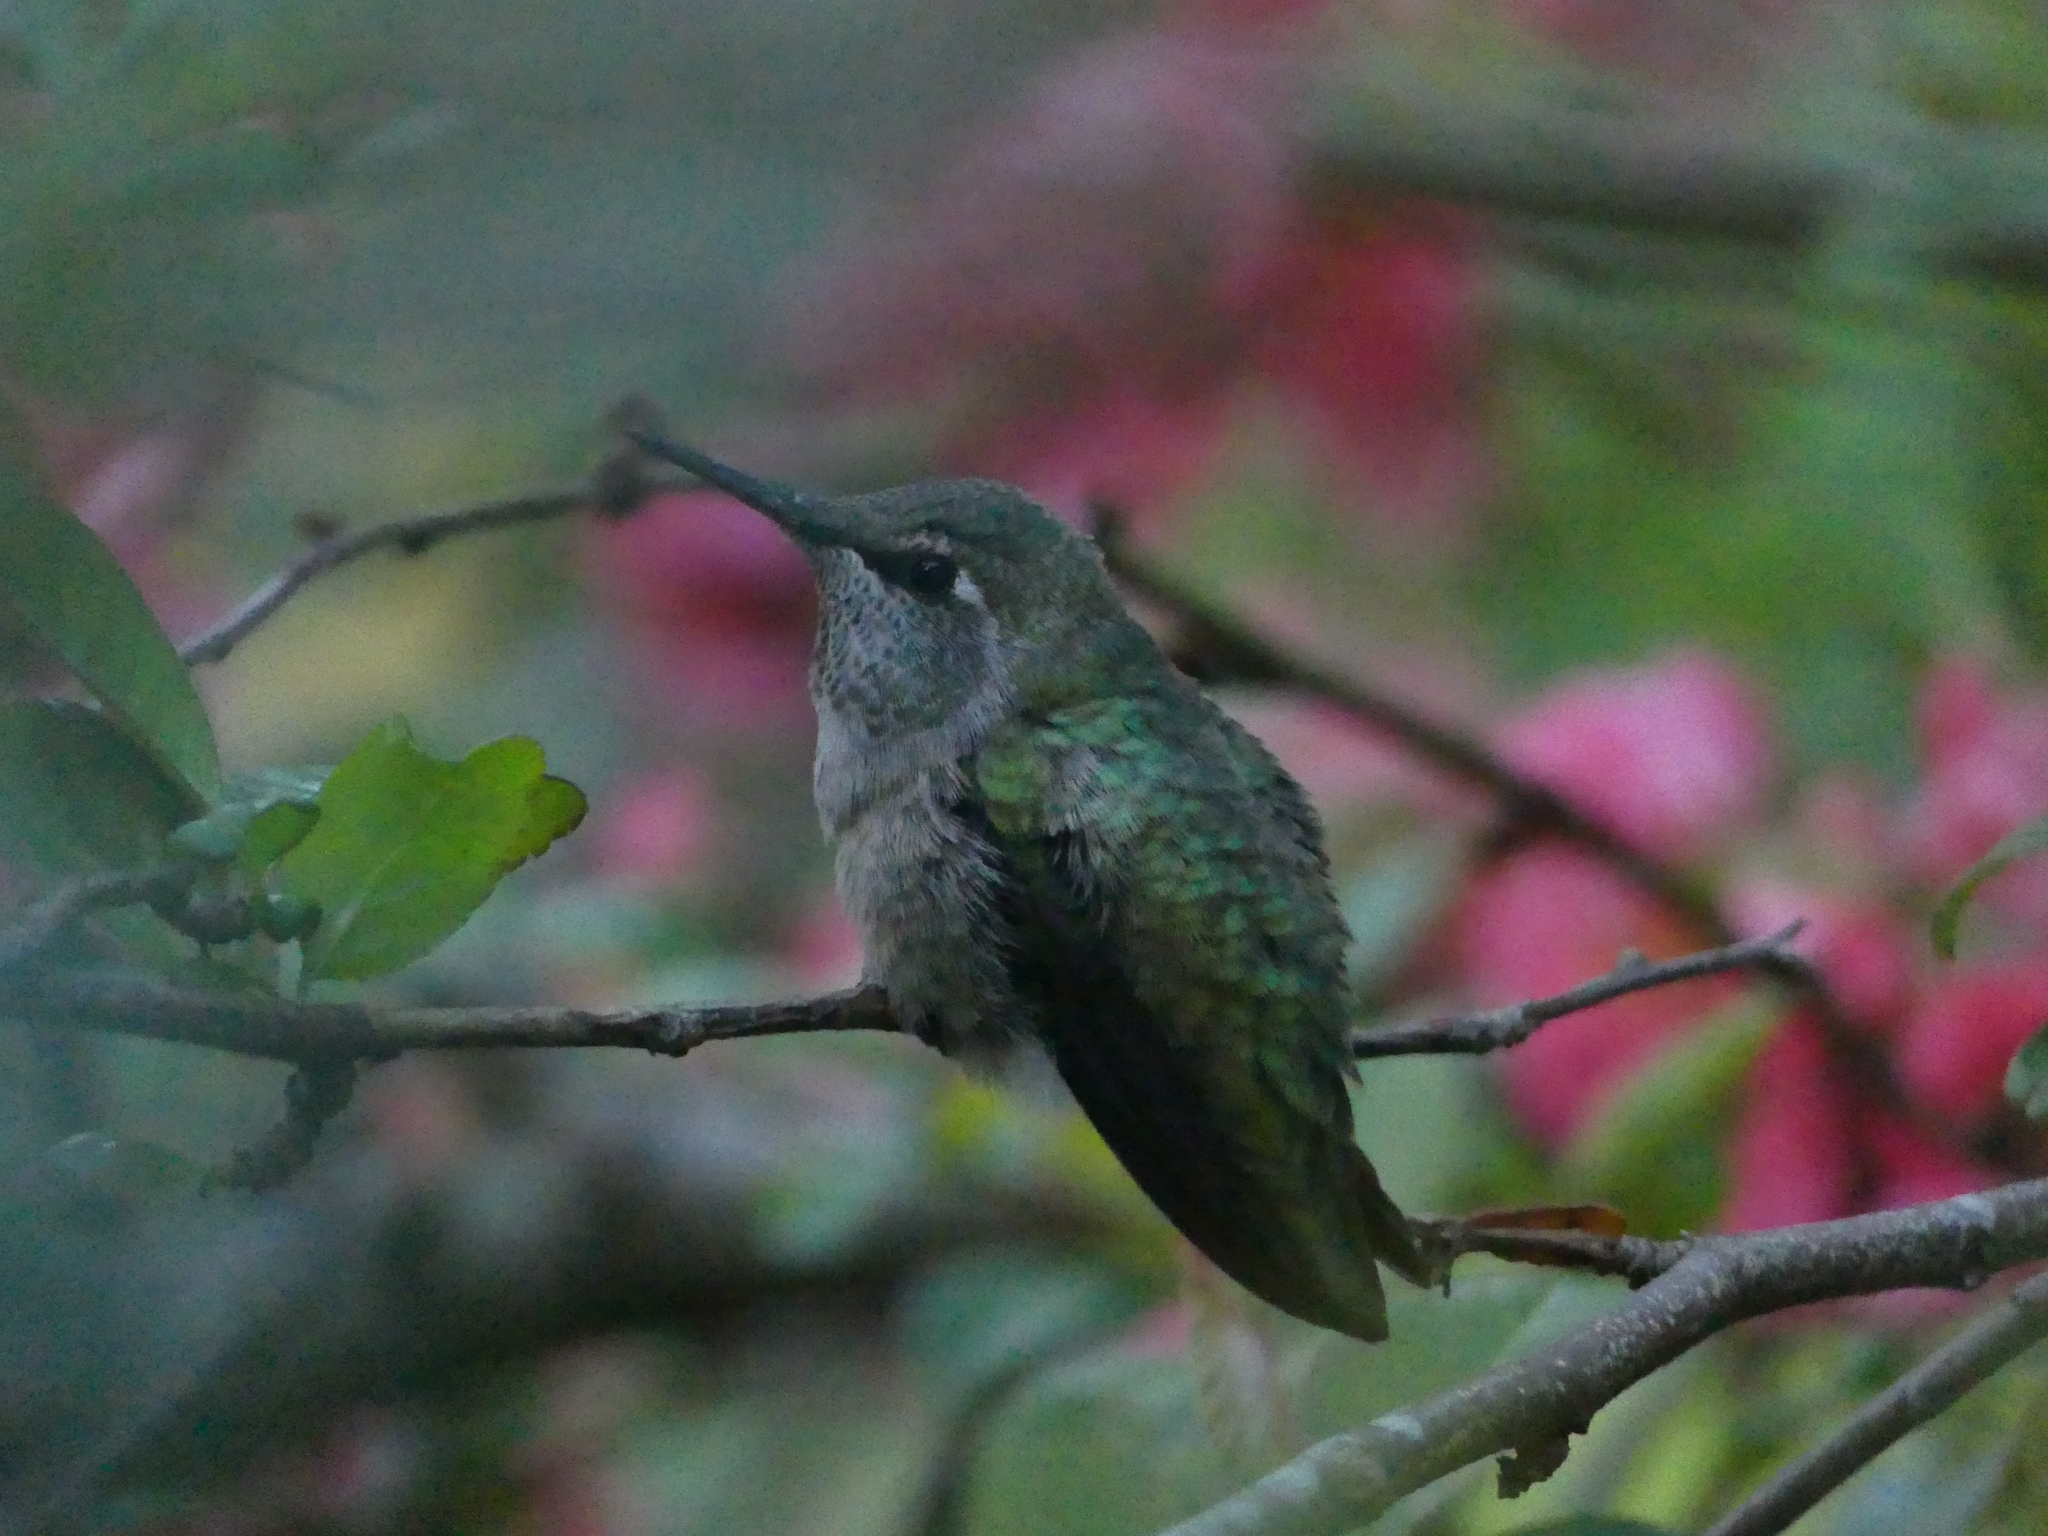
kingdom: Animalia
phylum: Chordata
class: Aves
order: Apodiformes
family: Trochilidae
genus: Calypte
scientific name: Calypte anna
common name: Anna's hummingbird
